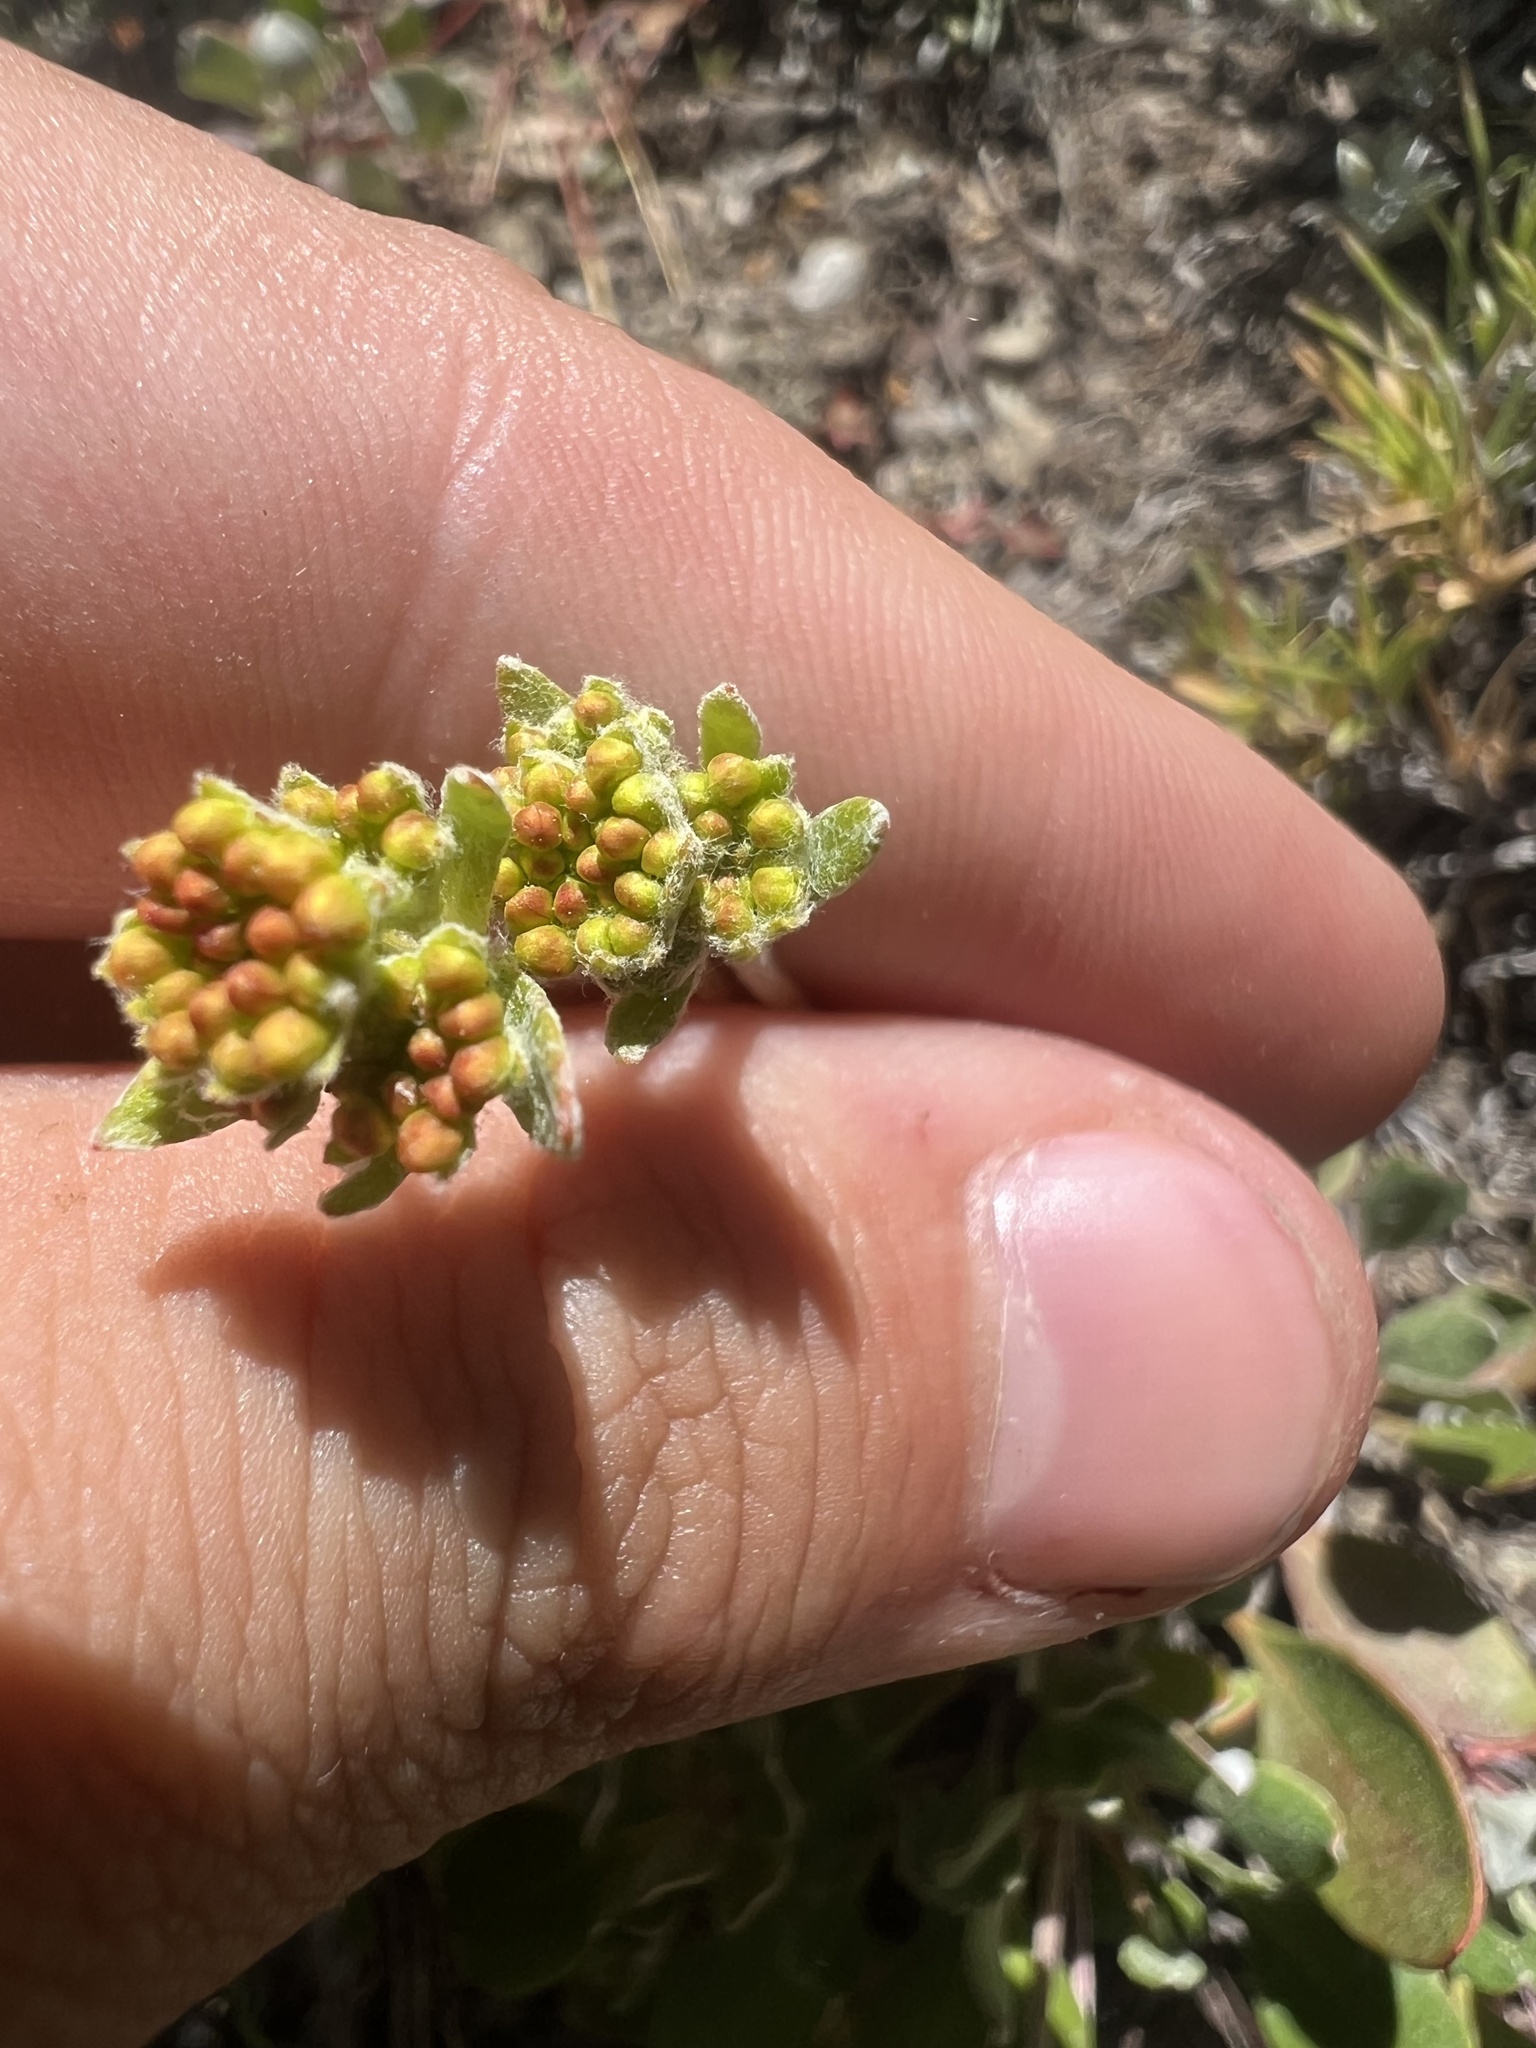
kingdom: Plantae
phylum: Tracheophyta
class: Magnoliopsida
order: Caryophyllales
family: Polygonaceae
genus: Eriogonum
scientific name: Eriogonum umbellatum
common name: Sulfur-buckwheat
